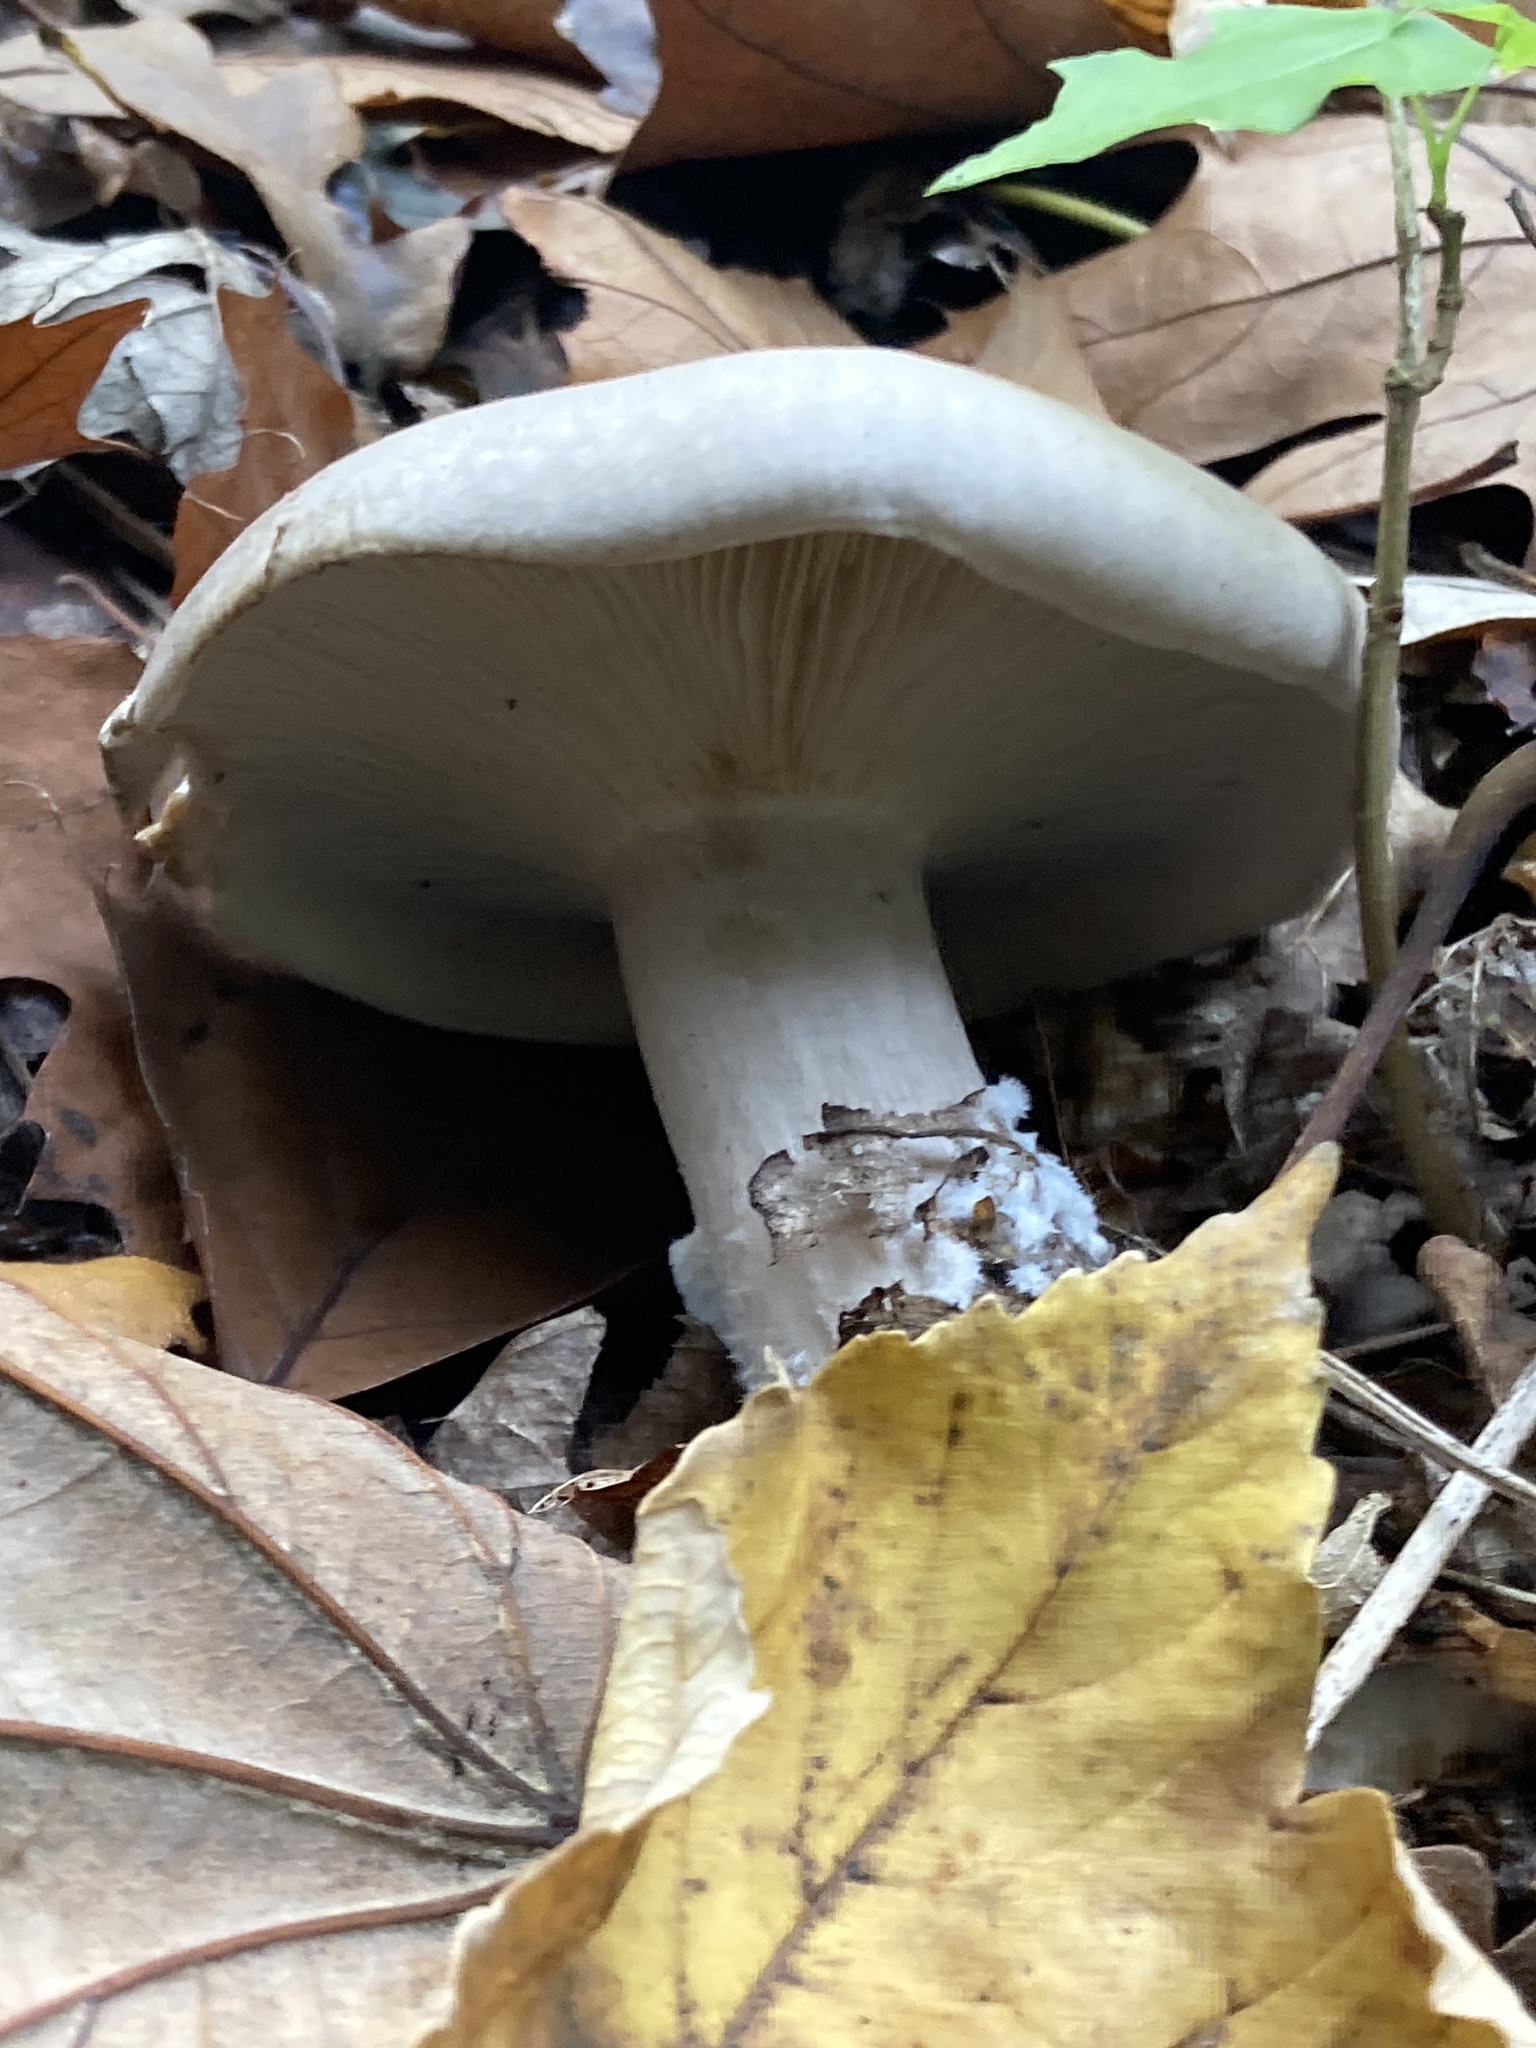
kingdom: Fungi
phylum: Basidiomycota
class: Agaricomycetes
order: Agaricales
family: Tricholomataceae
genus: Clitocybe
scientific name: Clitocybe nebularis
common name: Clouded agaric
